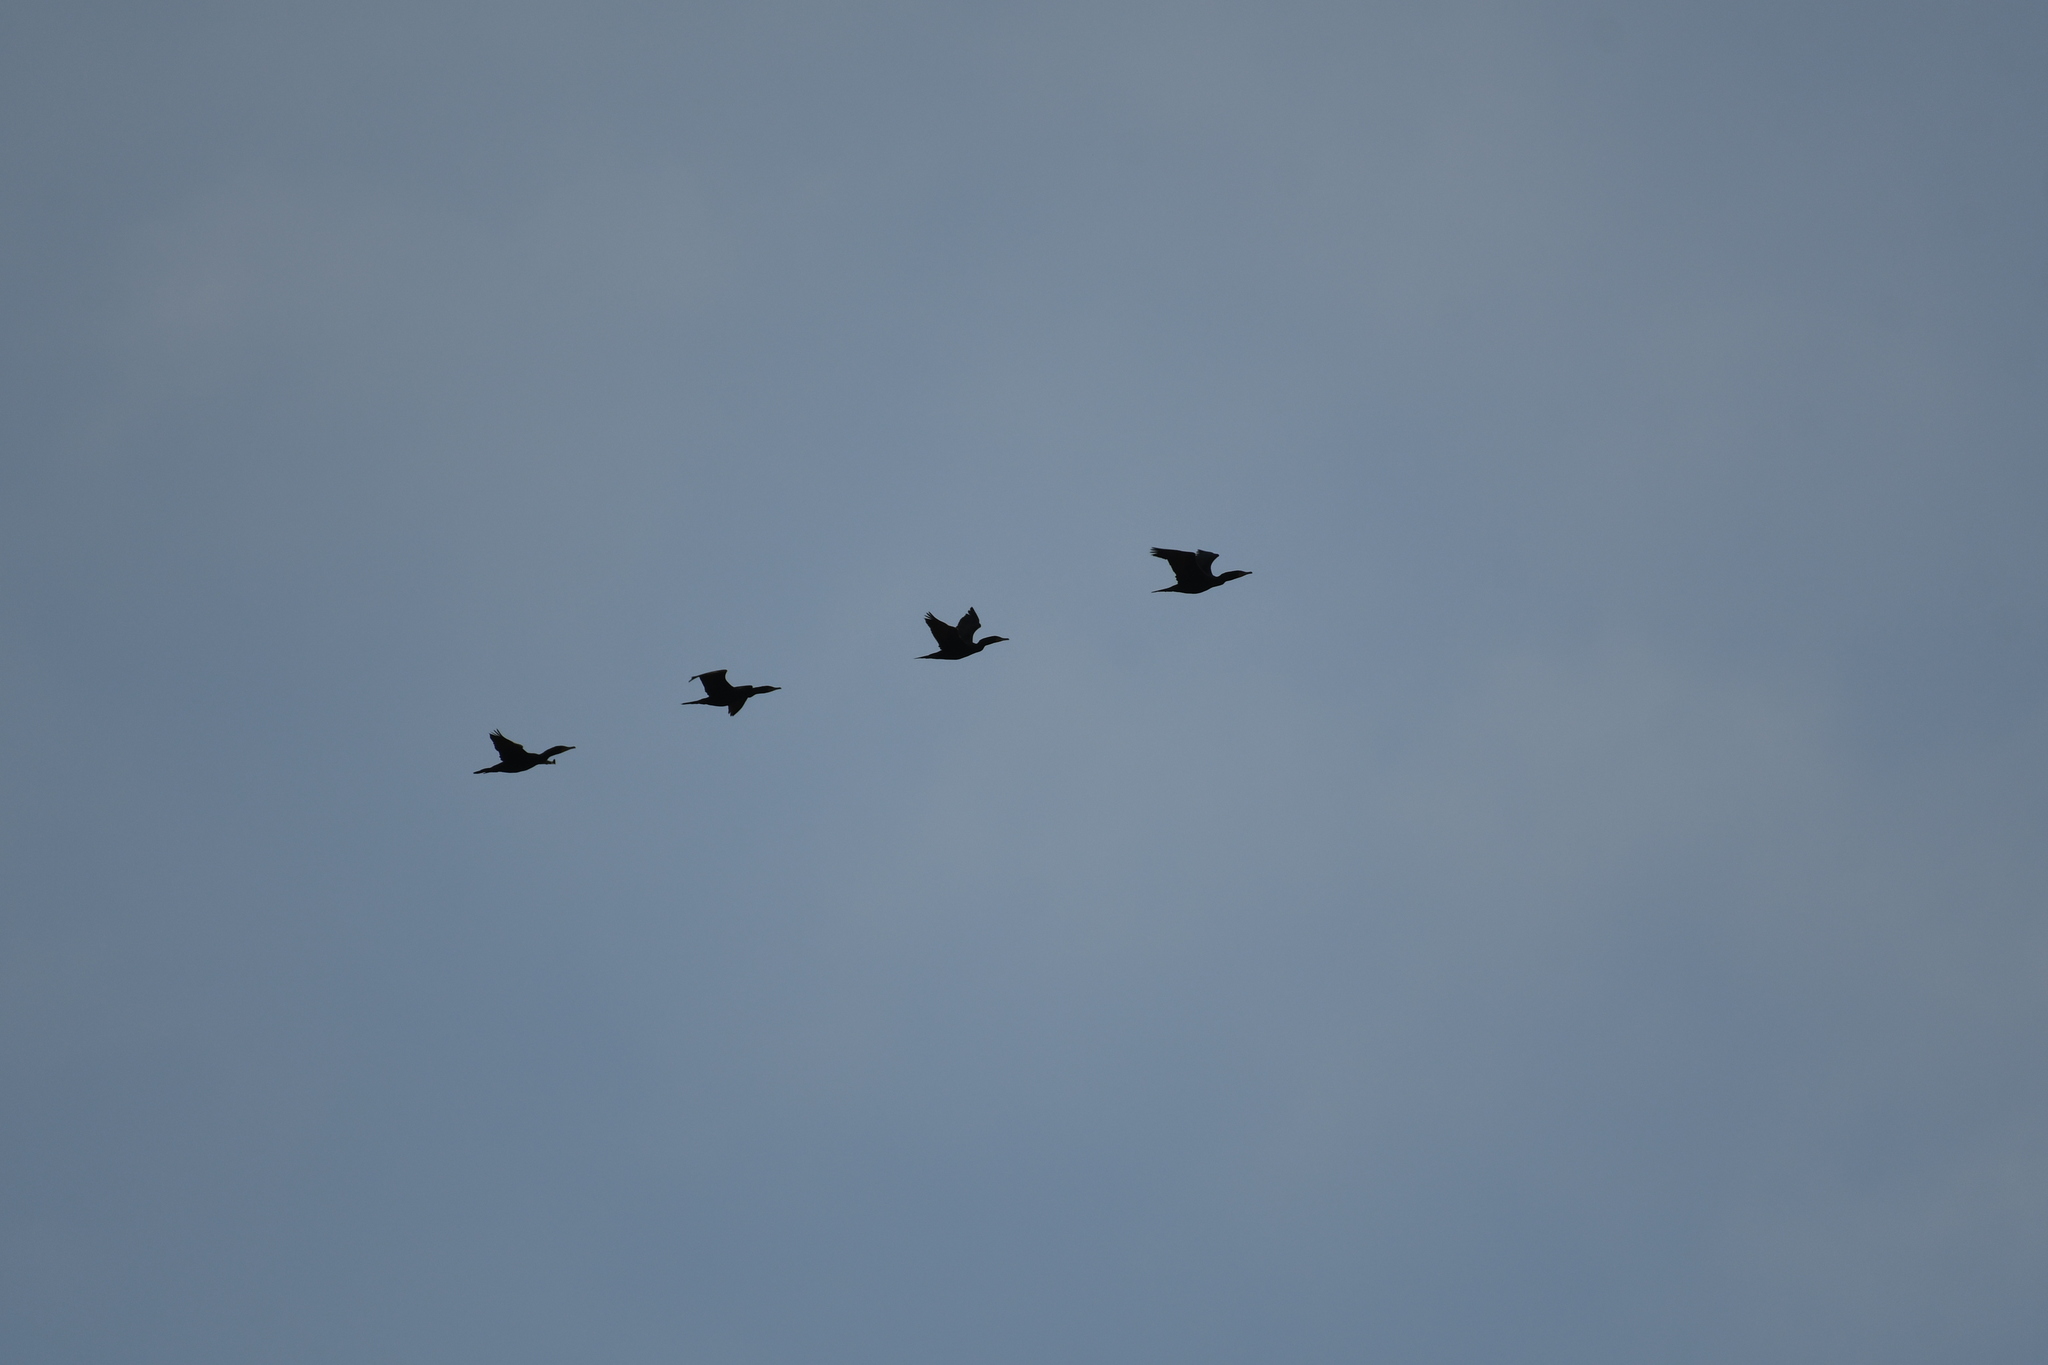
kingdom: Animalia
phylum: Chordata
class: Aves
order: Suliformes
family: Phalacrocoracidae
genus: Phalacrocorax
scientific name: Phalacrocorax auritus
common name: Double-crested cormorant
